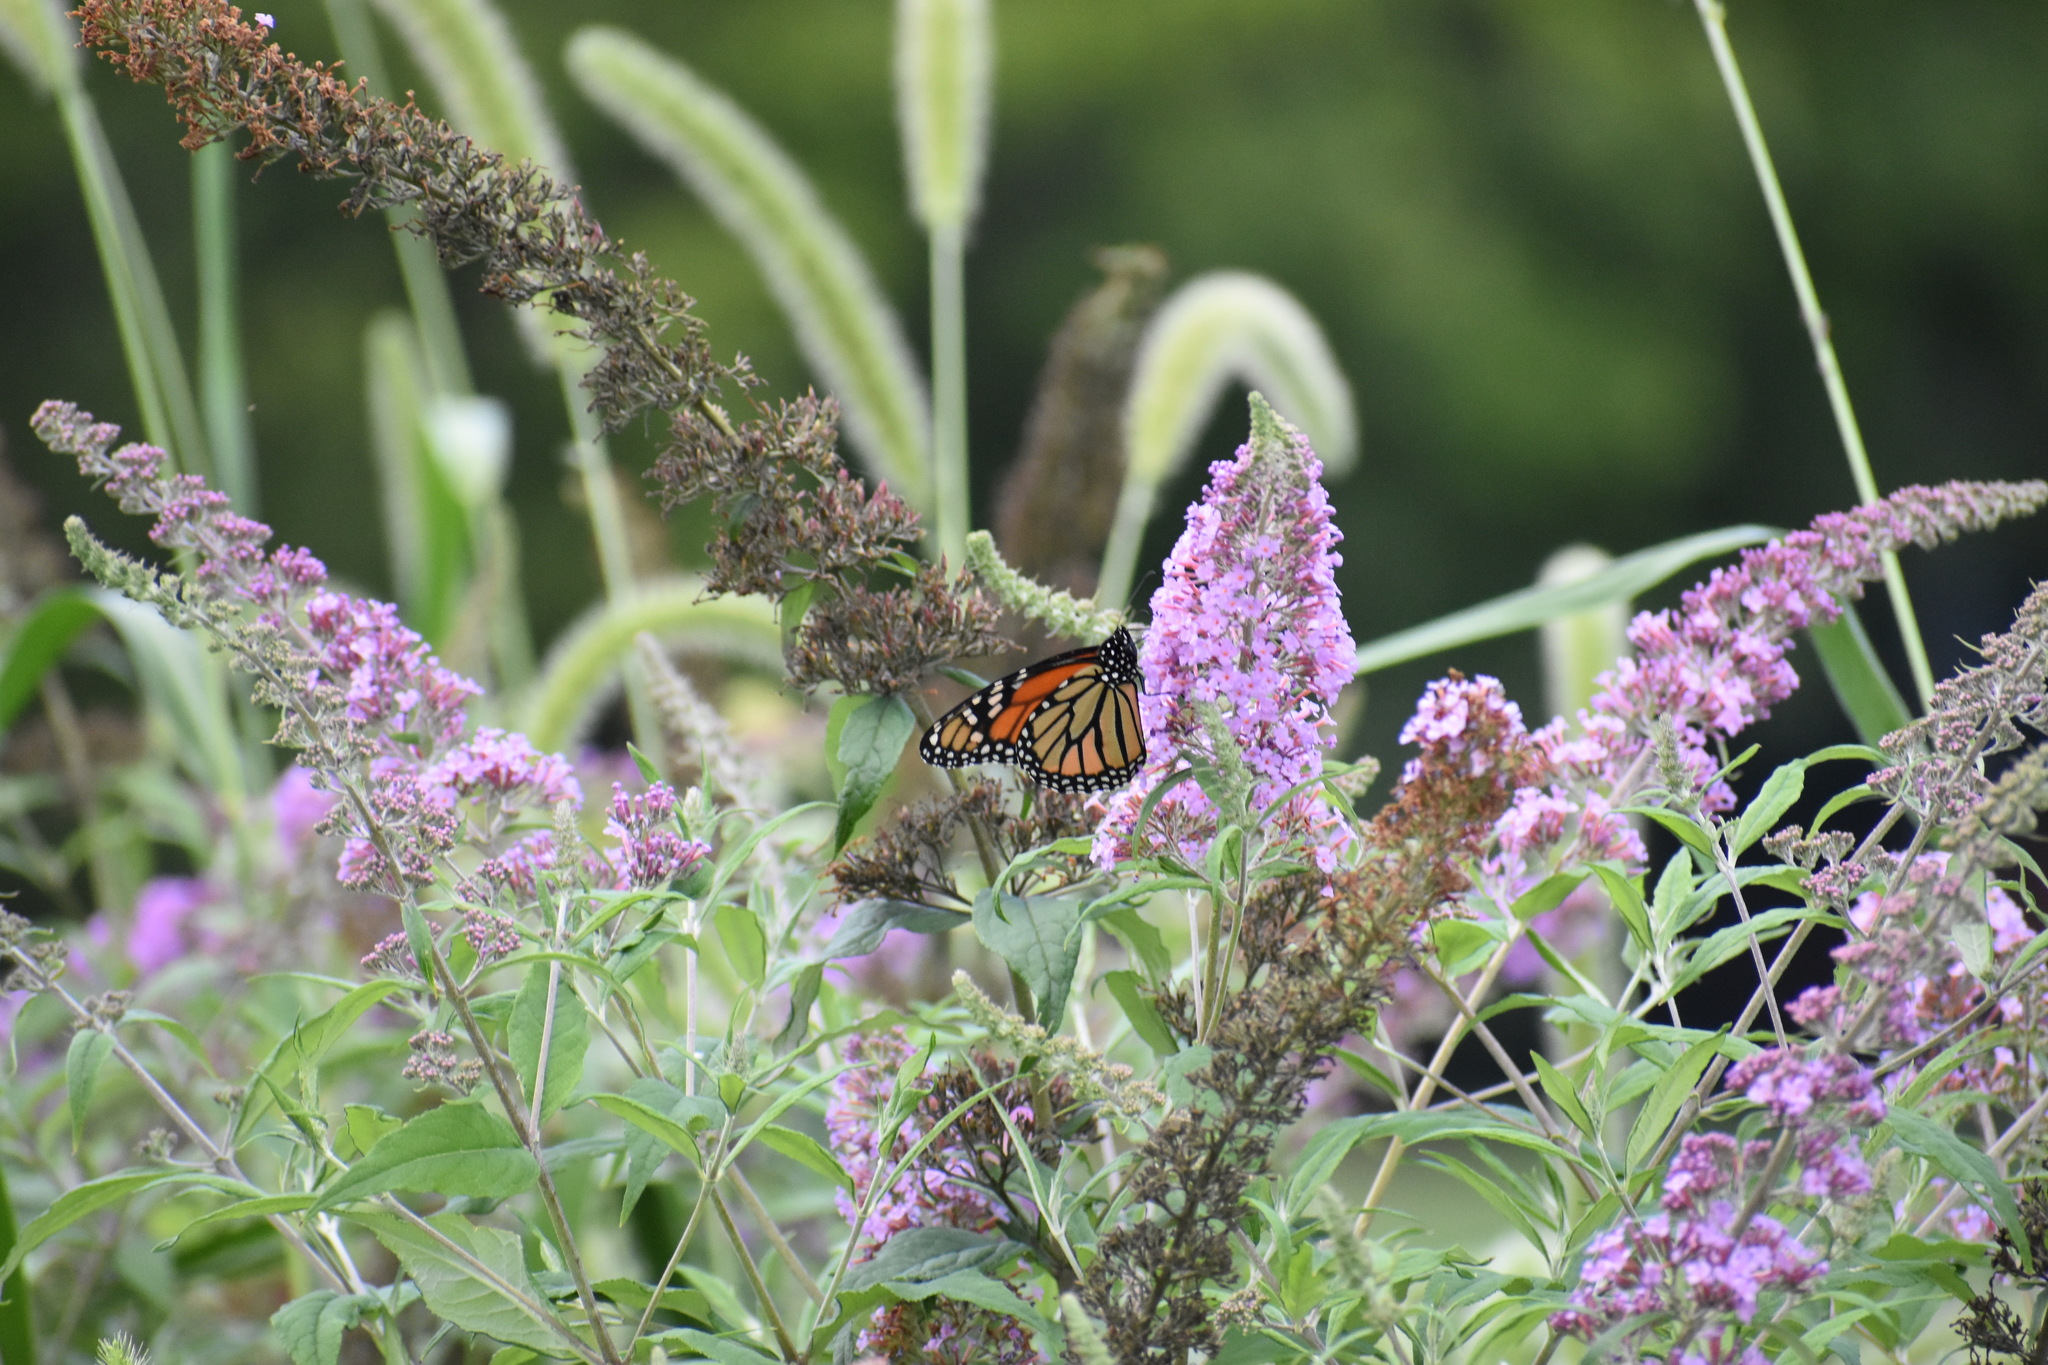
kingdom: Animalia
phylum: Arthropoda
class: Insecta
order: Lepidoptera
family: Nymphalidae
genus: Danaus
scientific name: Danaus plexippus
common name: Monarch
